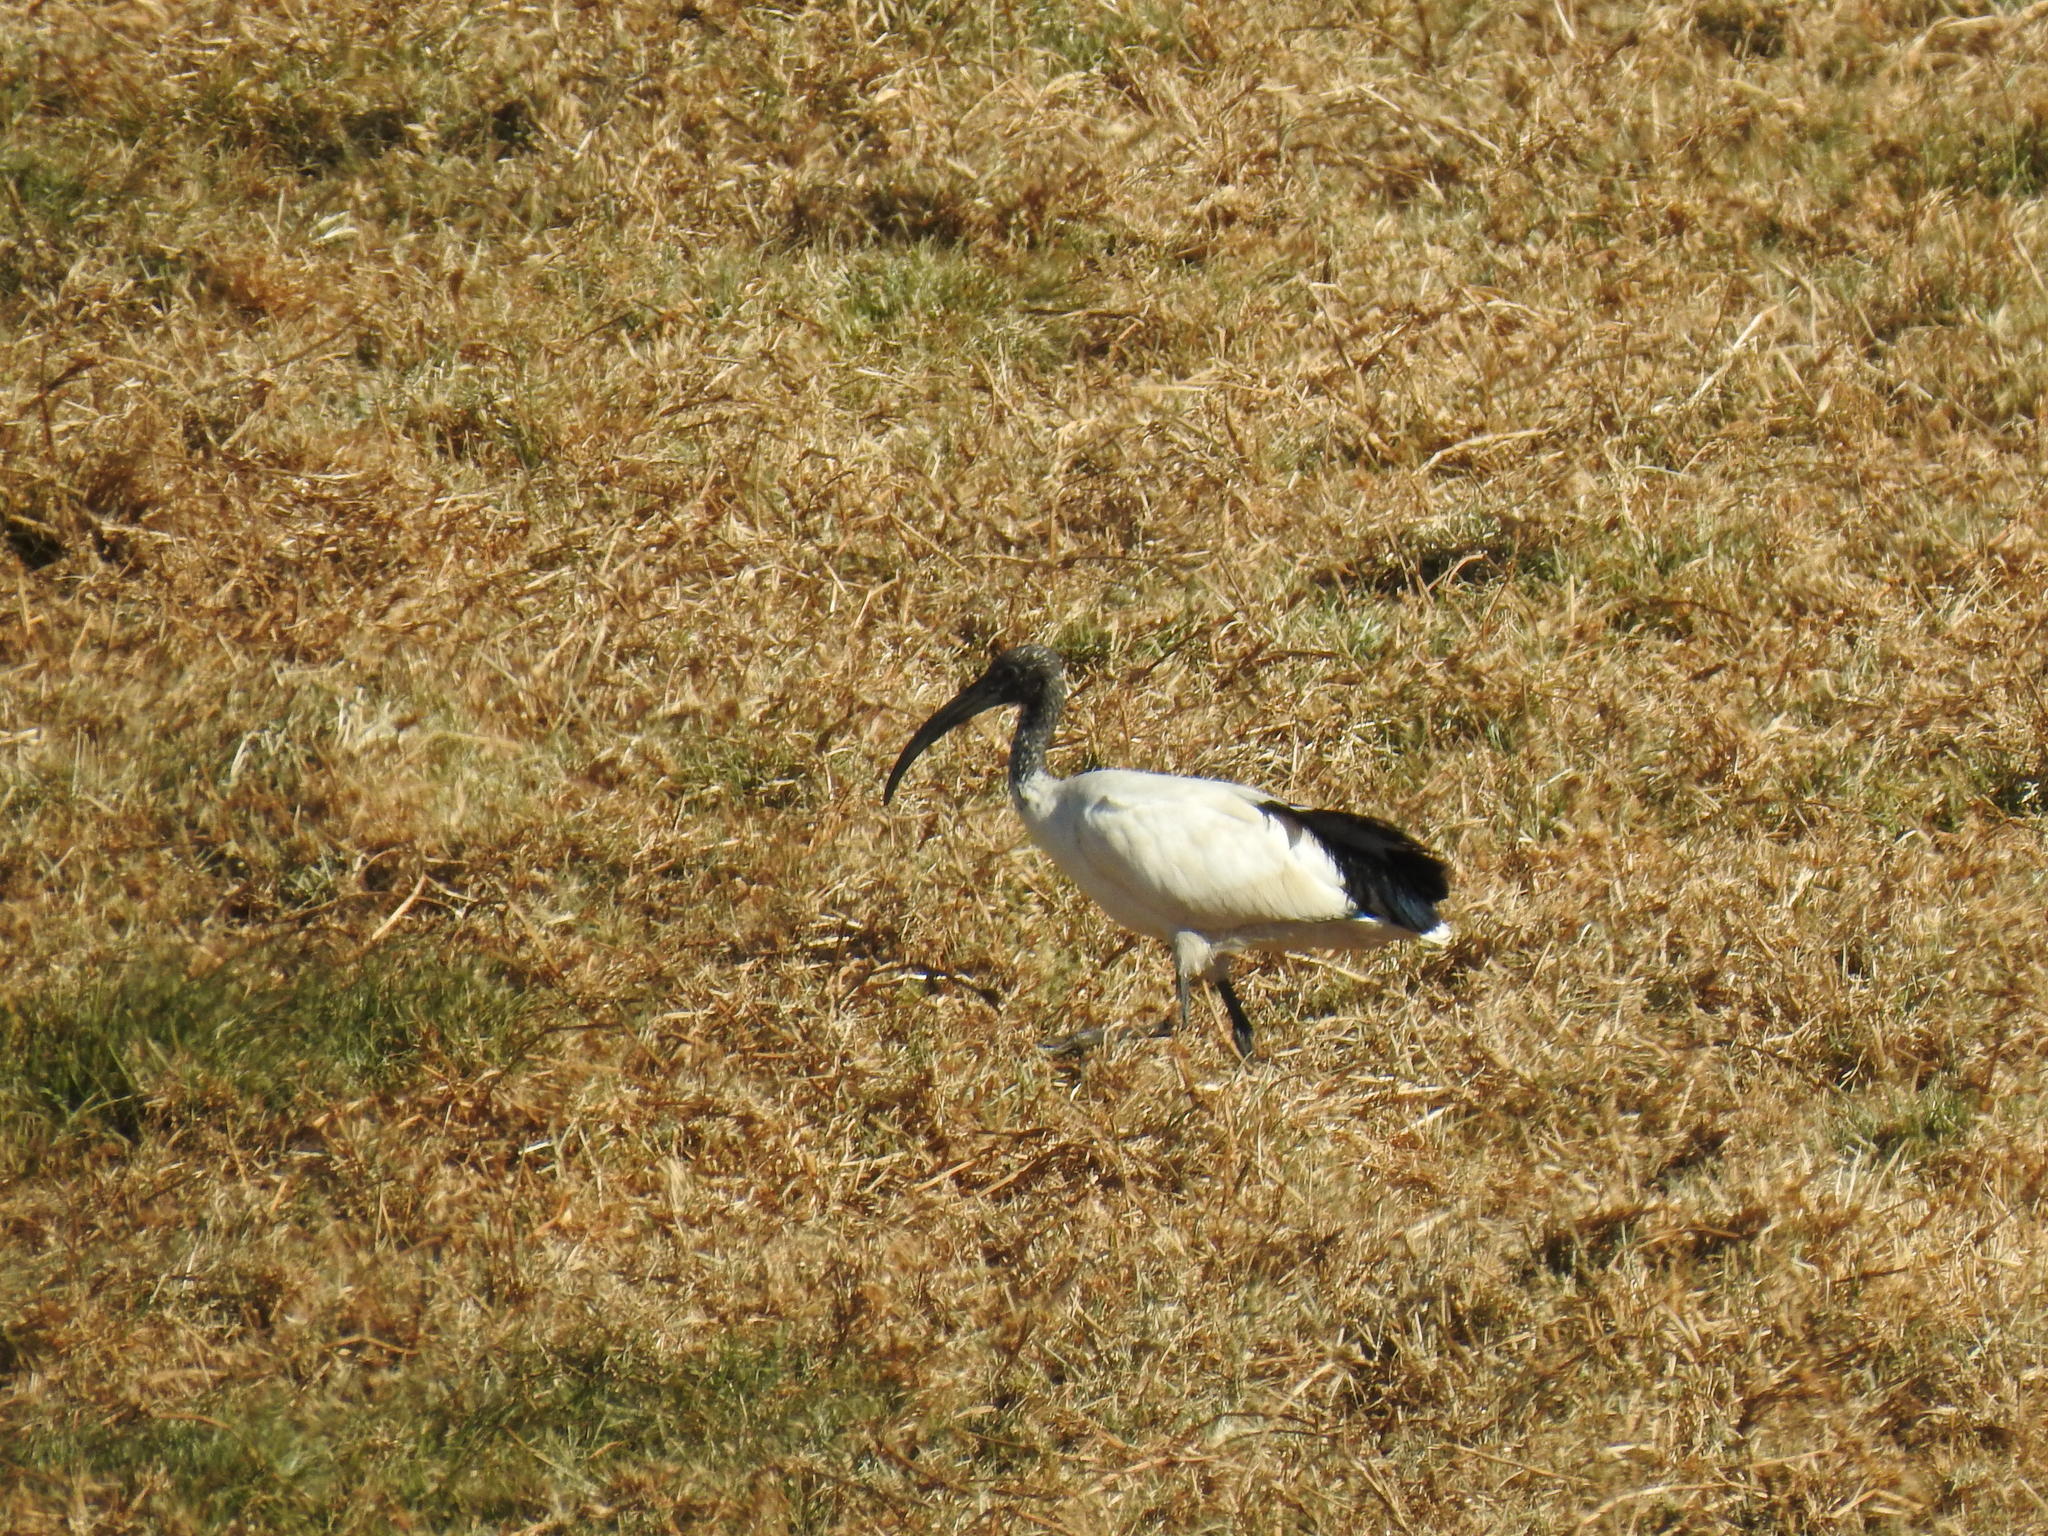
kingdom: Animalia
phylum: Chordata
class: Aves
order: Pelecaniformes
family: Threskiornithidae
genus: Threskiornis
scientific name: Threskiornis aethiopicus
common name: Sacred ibis
